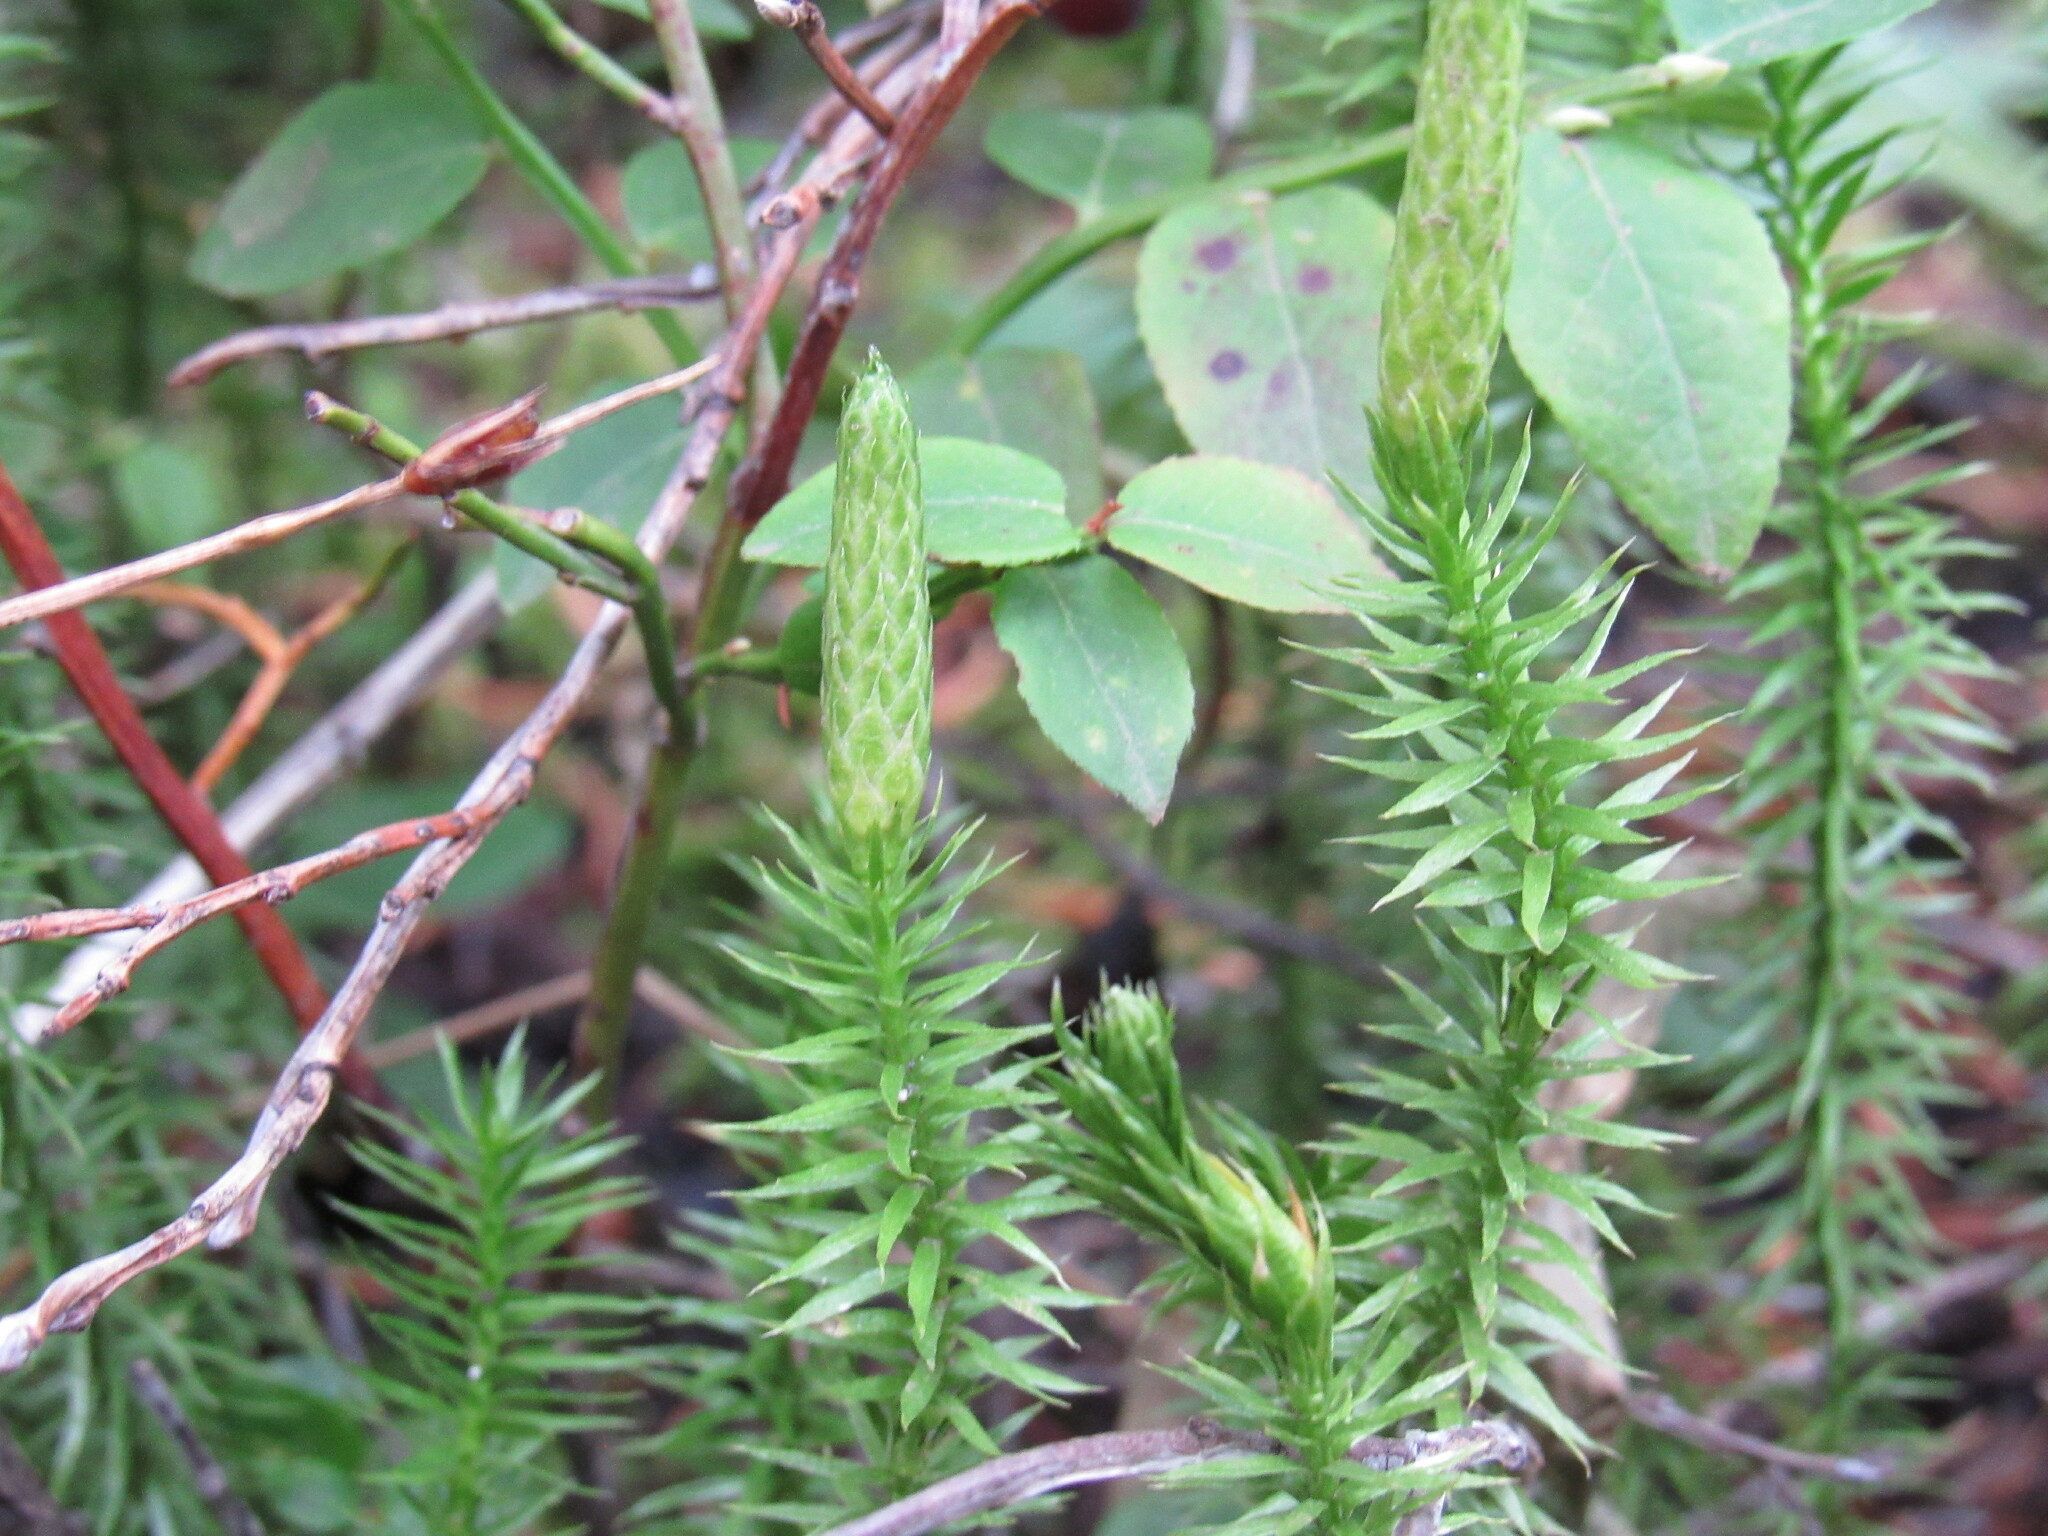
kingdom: Plantae
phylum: Tracheophyta
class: Lycopodiopsida
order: Lycopodiales
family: Lycopodiaceae
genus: Spinulum
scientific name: Spinulum annotinum
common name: Interrupted club-moss
